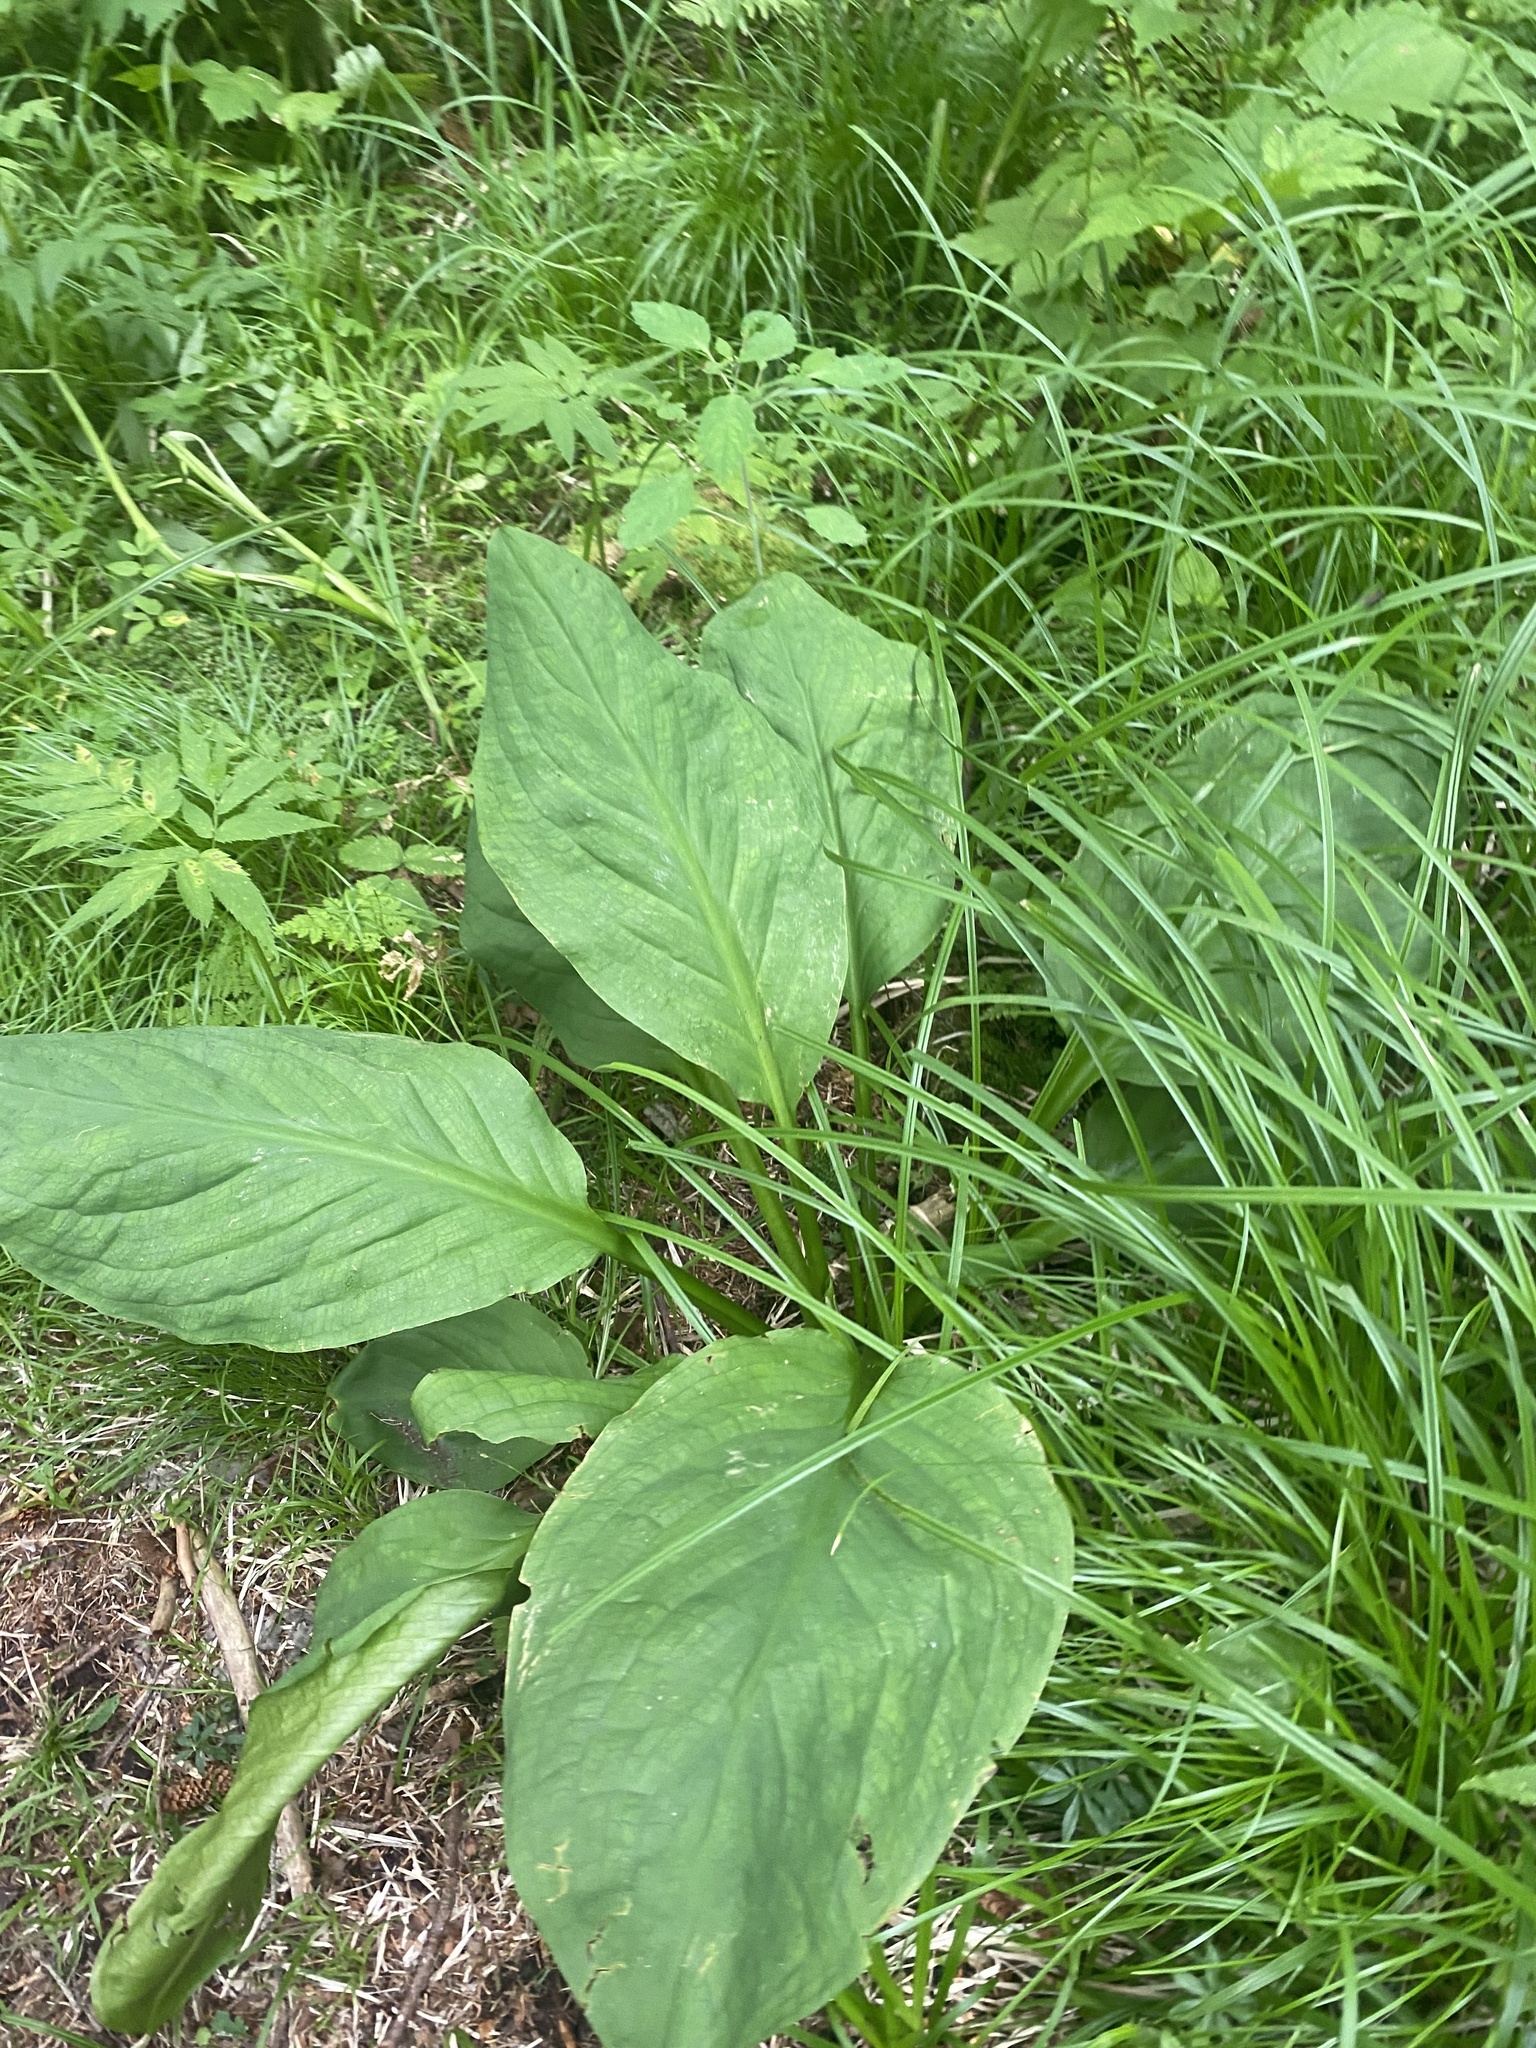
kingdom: Plantae
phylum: Tracheophyta
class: Liliopsida
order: Alismatales
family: Araceae
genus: Lysichiton
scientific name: Lysichiton camtschatcensis
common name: Asian skunk-cabbage
